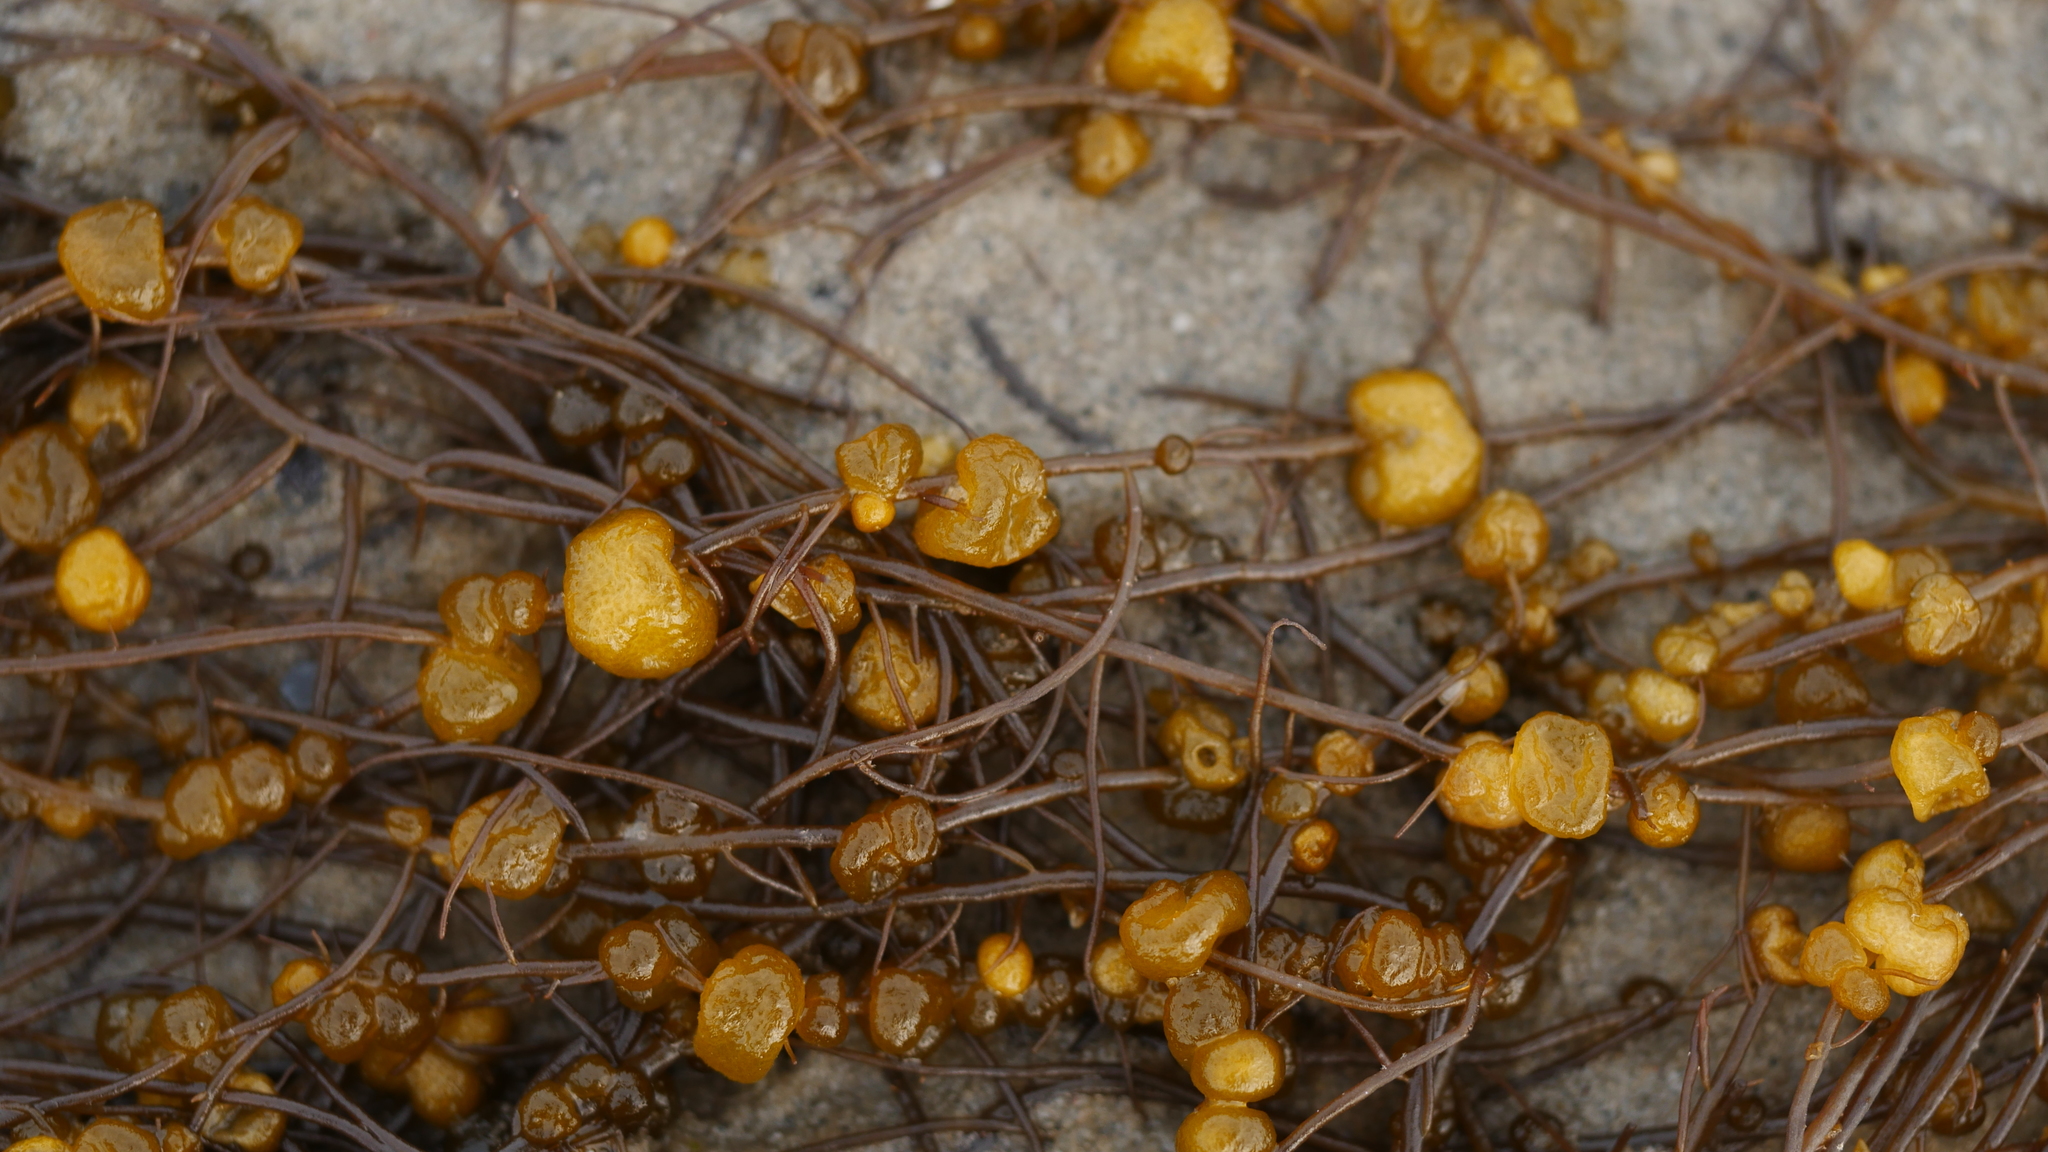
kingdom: Chromista
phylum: Ochrophyta
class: Phaeophyceae
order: Fucales
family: Sargassaceae
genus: Sargassum
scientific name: Sargassum fluitans
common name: Sargassum seaweed
